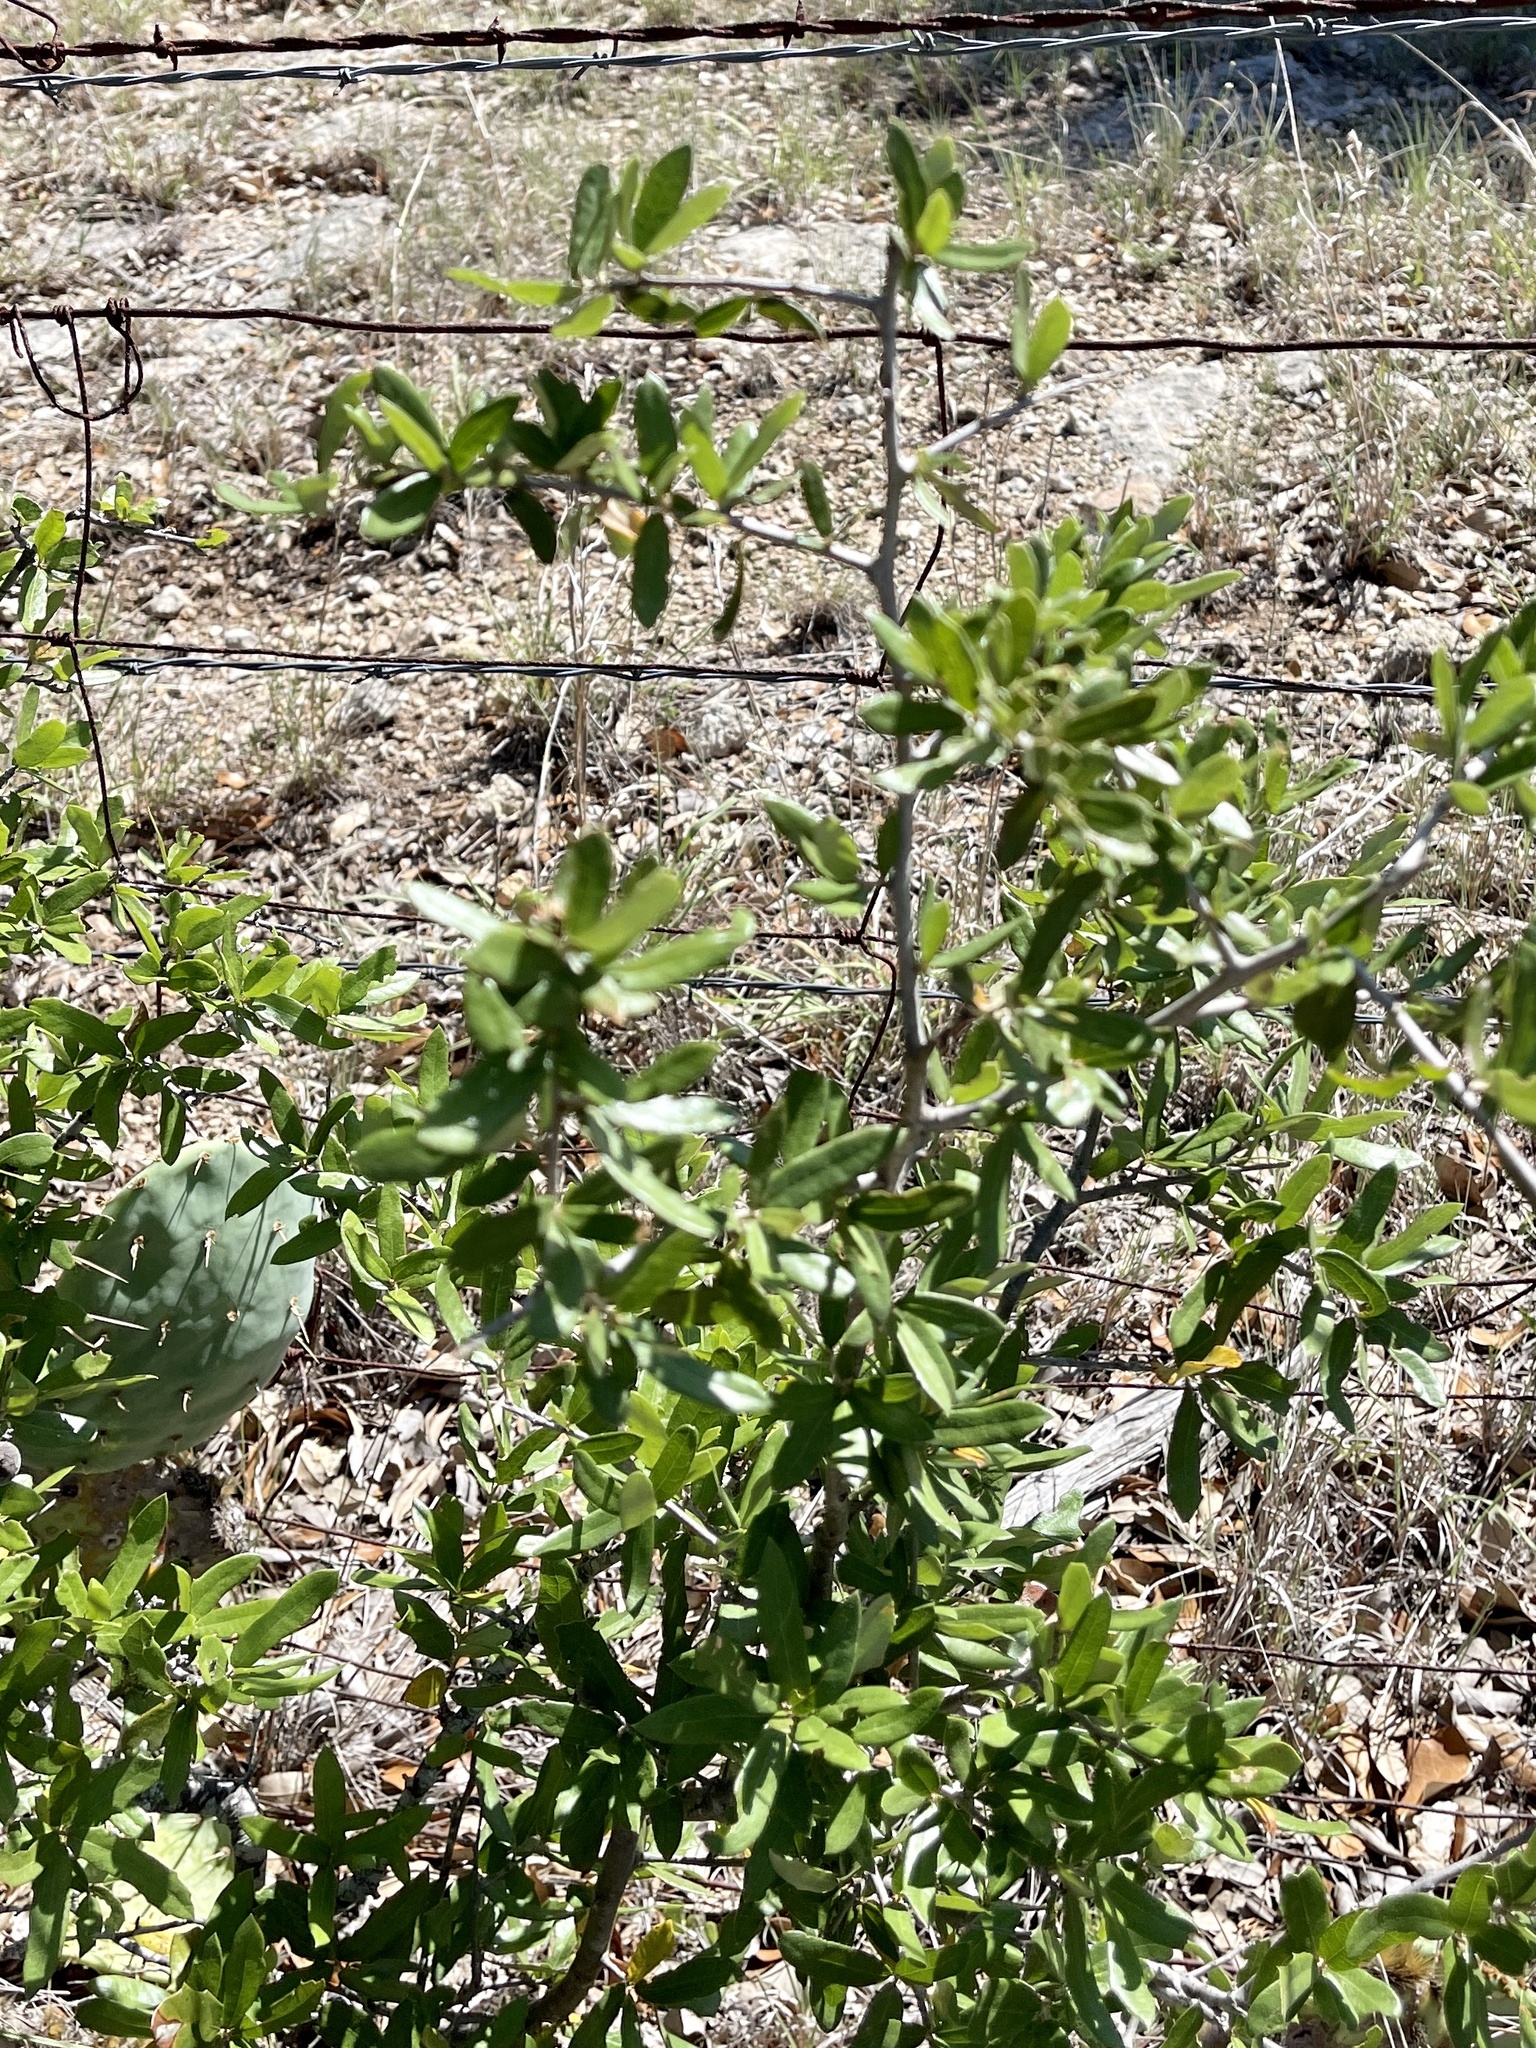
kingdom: Plantae
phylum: Tracheophyta
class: Magnoliopsida
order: Fagales
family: Fagaceae
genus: Quercus
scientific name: Quercus fusiformis
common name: Texas live oak
